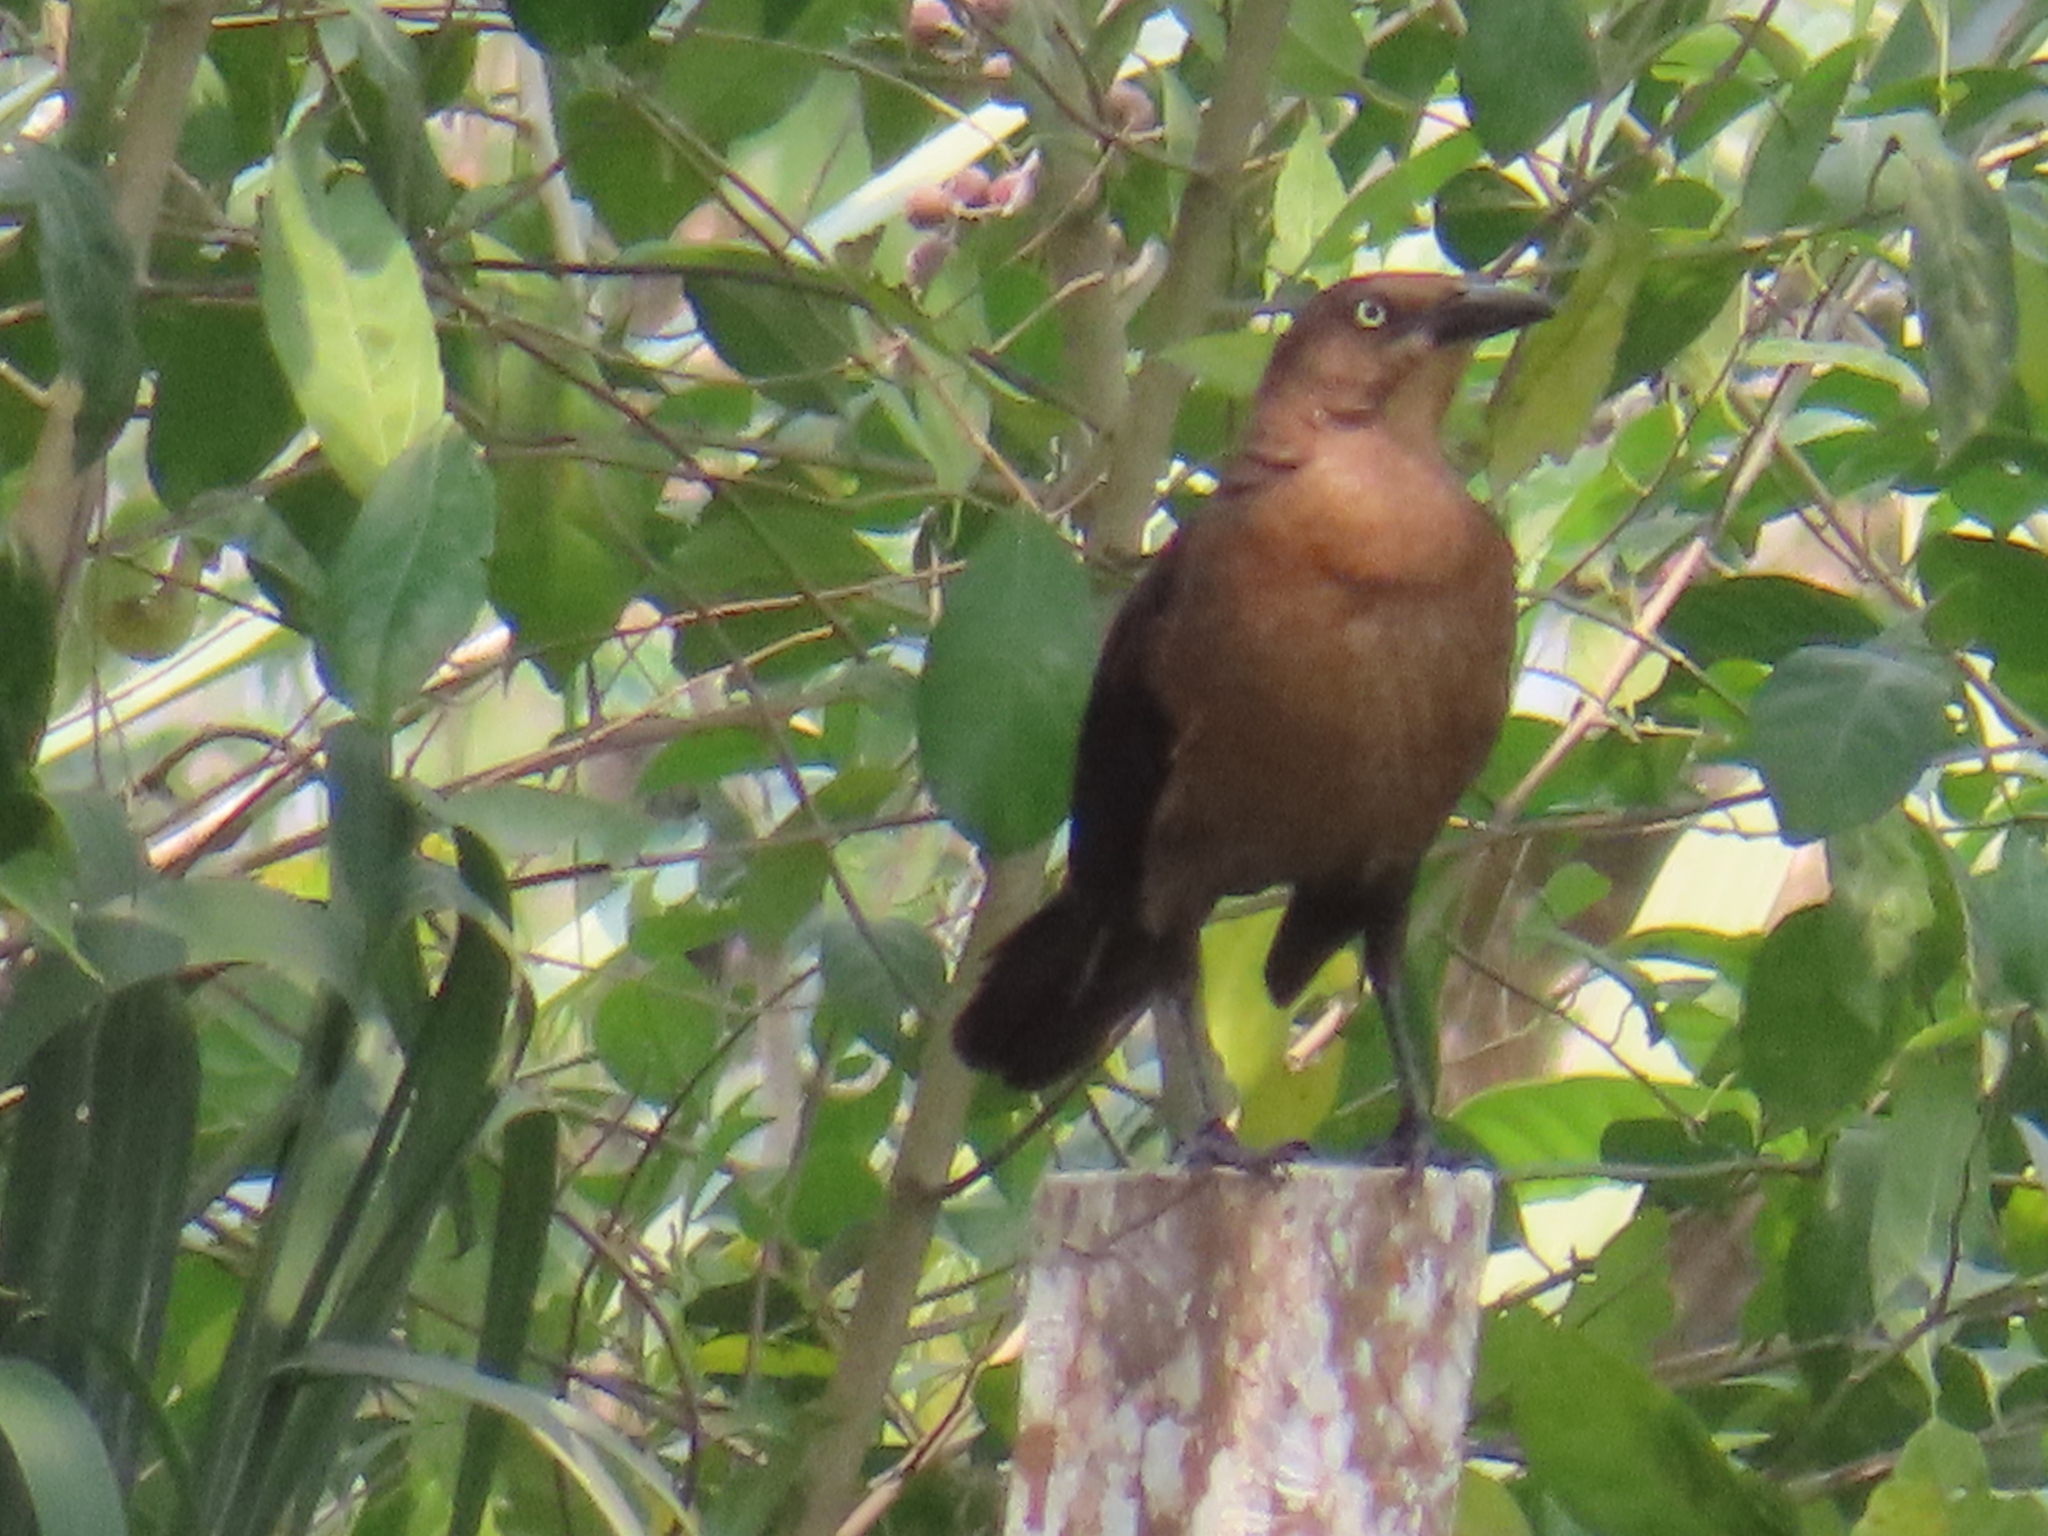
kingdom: Animalia
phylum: Chordata
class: Aves
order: Passeriformes
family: Icteridae
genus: Quiscalus
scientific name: Quiscalus mexicanus
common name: Great-tailed grackle
